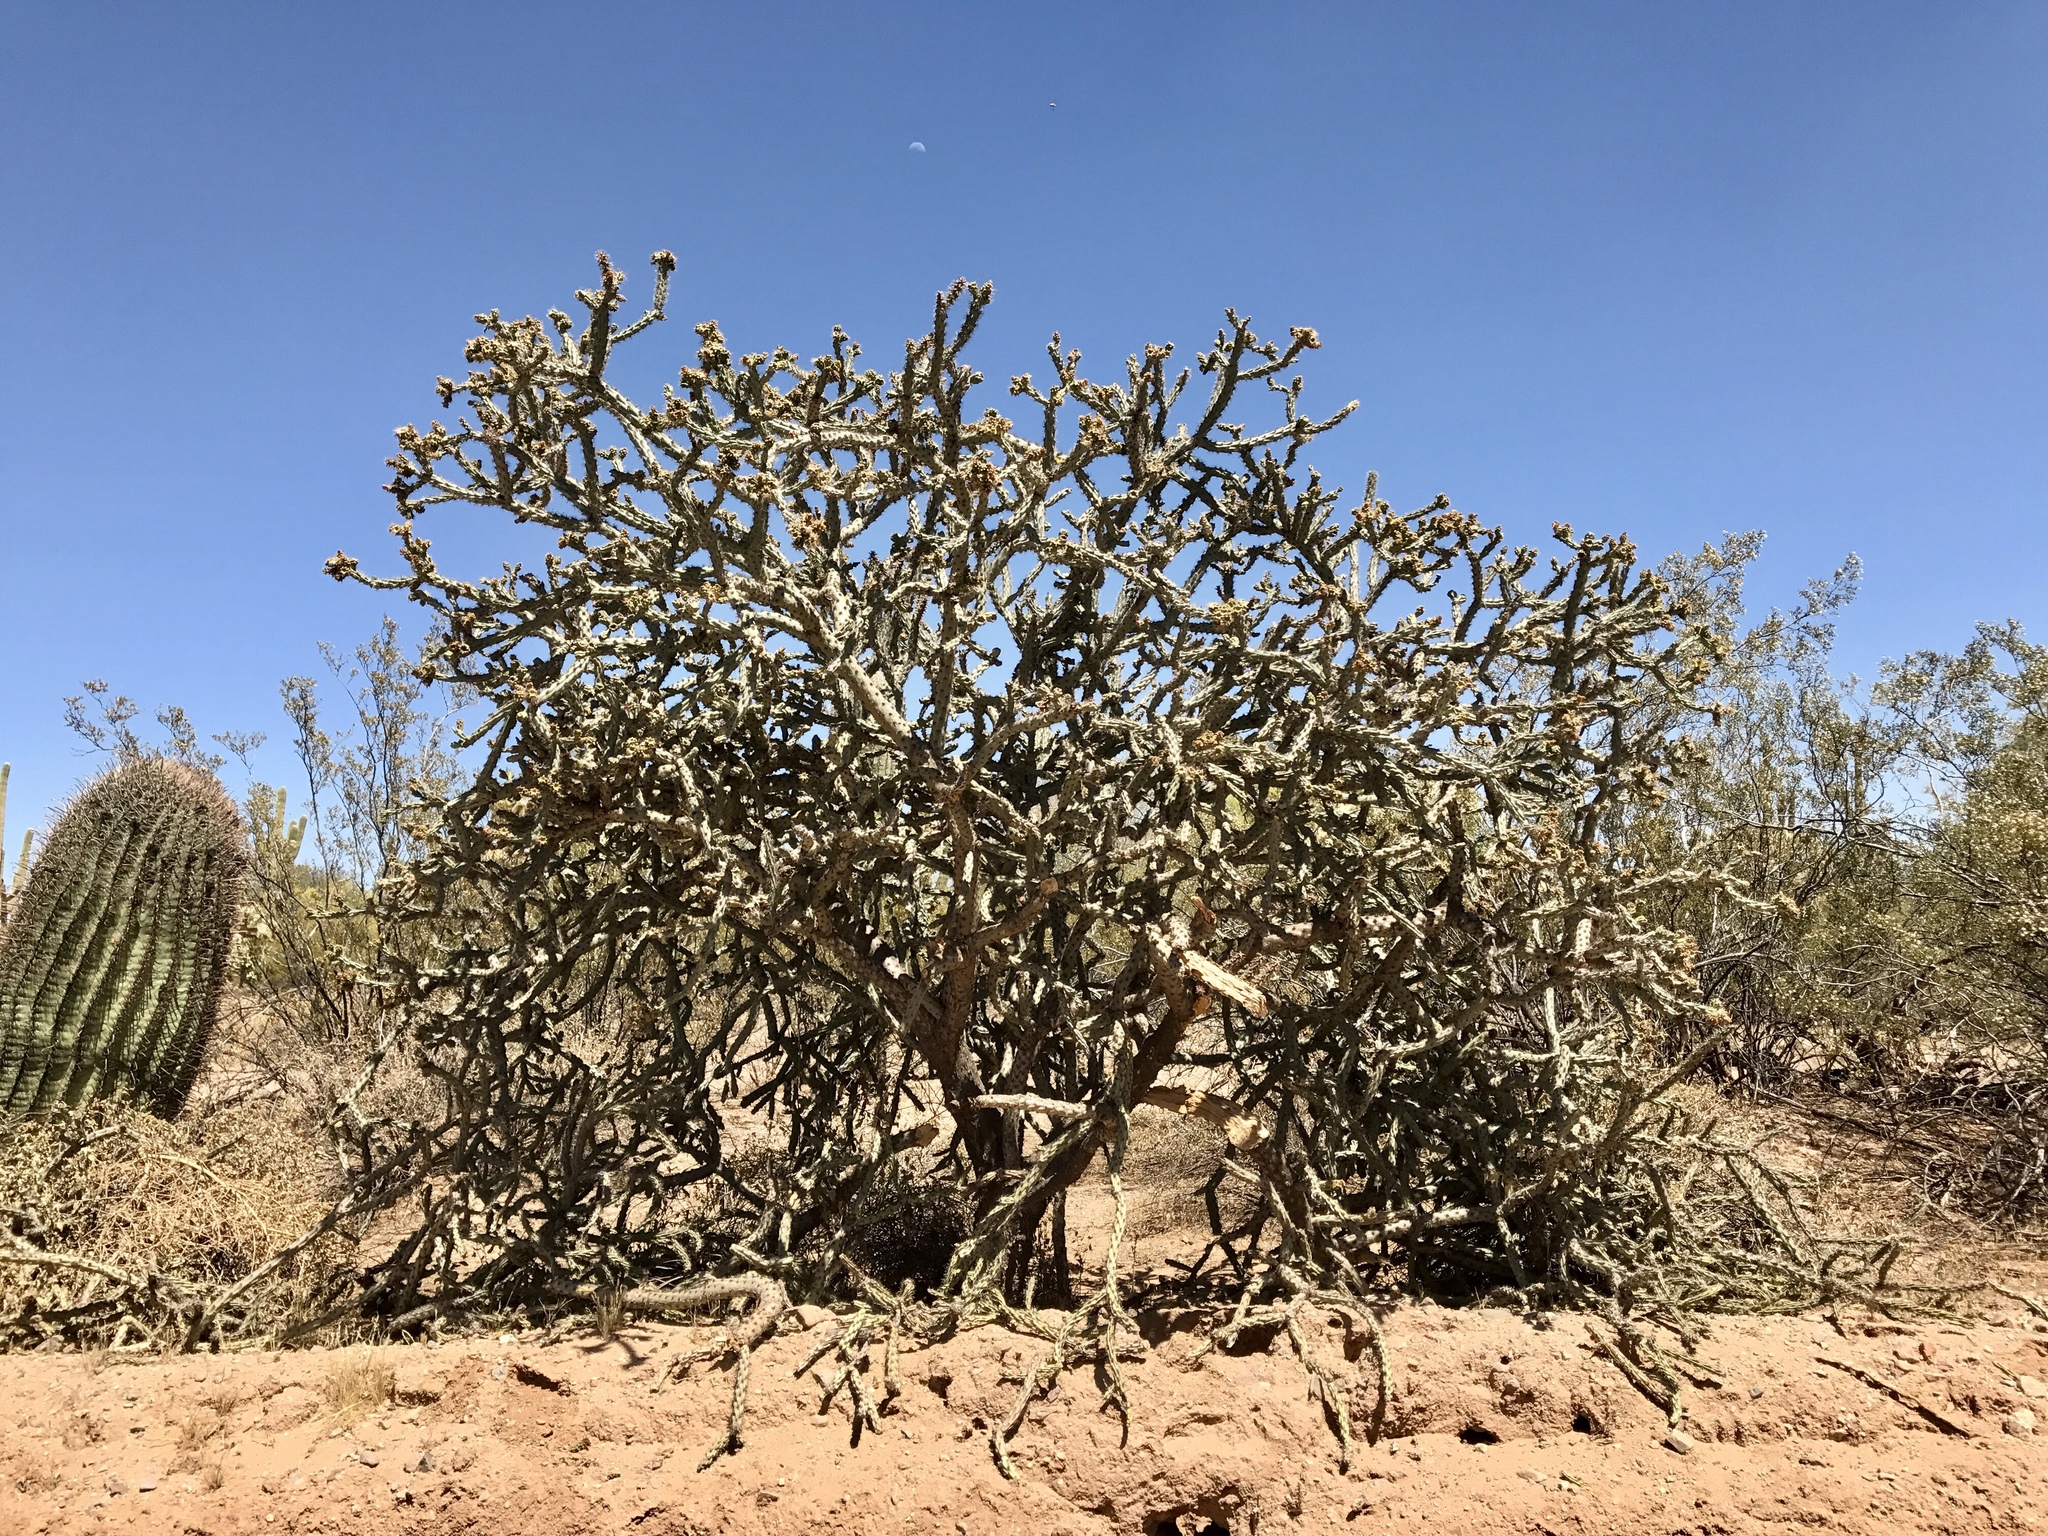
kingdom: Plantae
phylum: Tracheophyta
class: Magnoliopsida
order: Caryophyllales
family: Cactaceae
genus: Cylindropuntia
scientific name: Cylindropuntia acanthocarpa
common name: Buckhorn cholla
